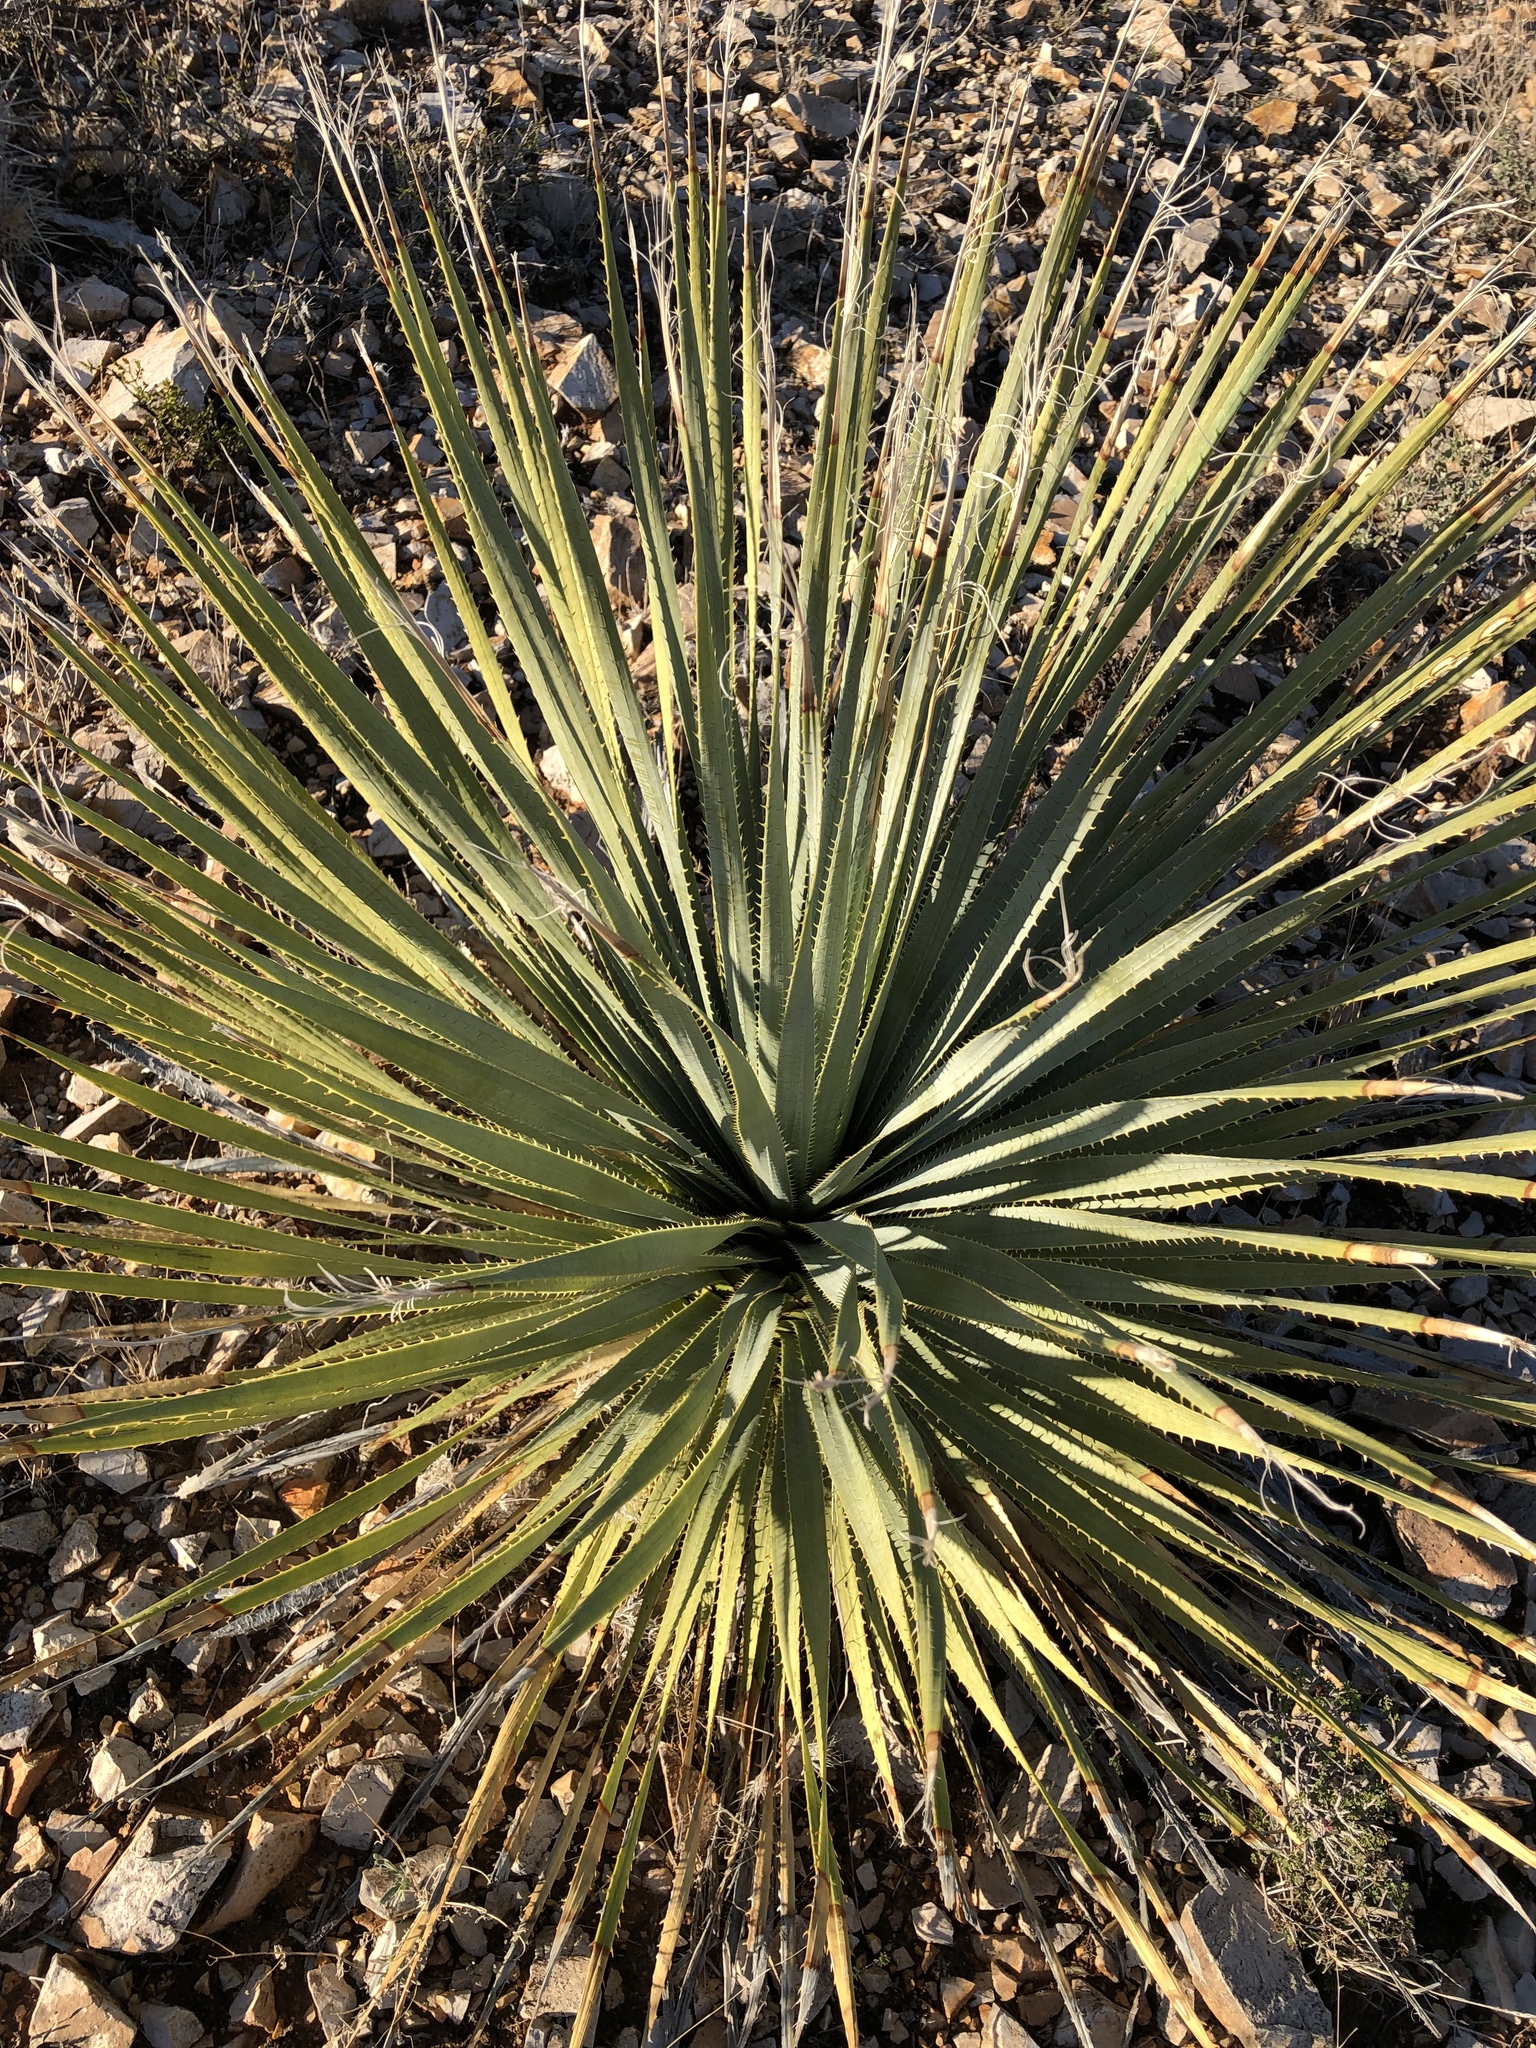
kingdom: Plantae
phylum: Tracheophyta
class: Liliopsida
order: Asparagales
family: Asparagaceae
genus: Dasylirion
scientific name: Dasylirion wheeleri
